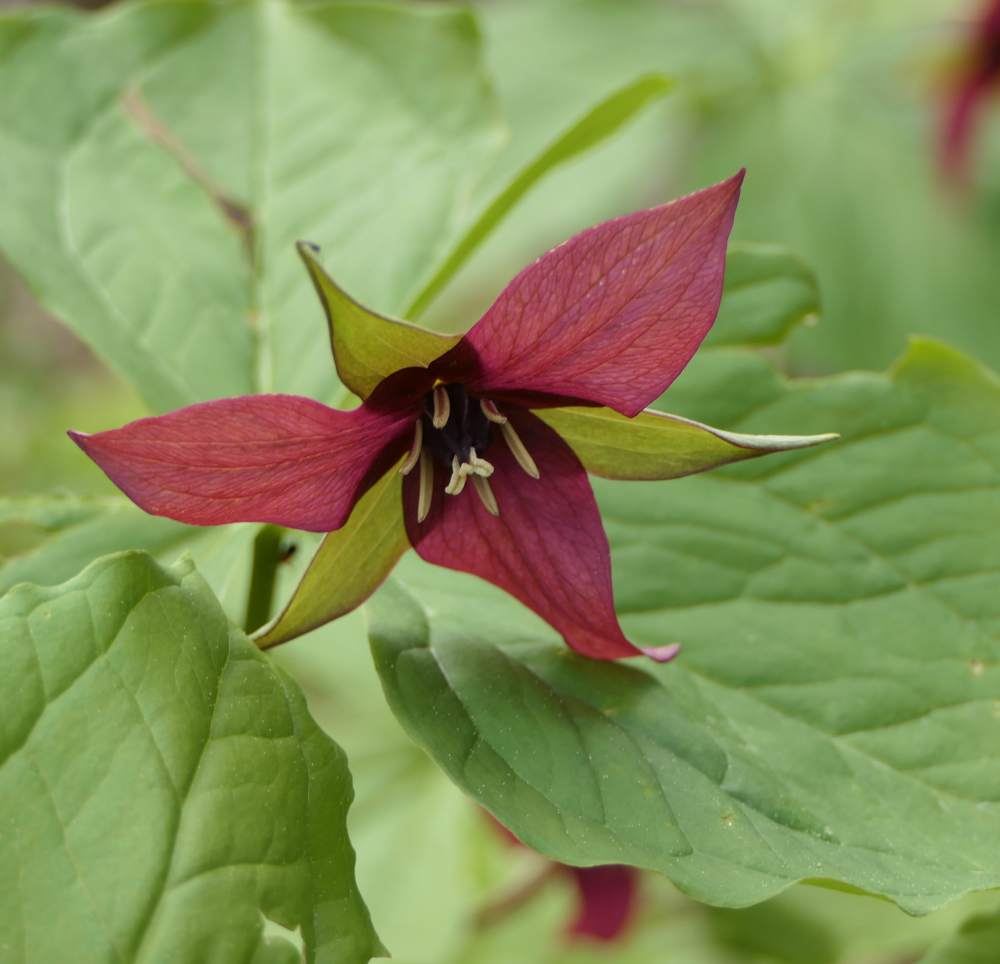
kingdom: Plantae
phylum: Tracheophyta
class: Liliopsida
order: Liliales
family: Melanthiaceae
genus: Trillium
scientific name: Trillium erectum
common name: Purple trillium
